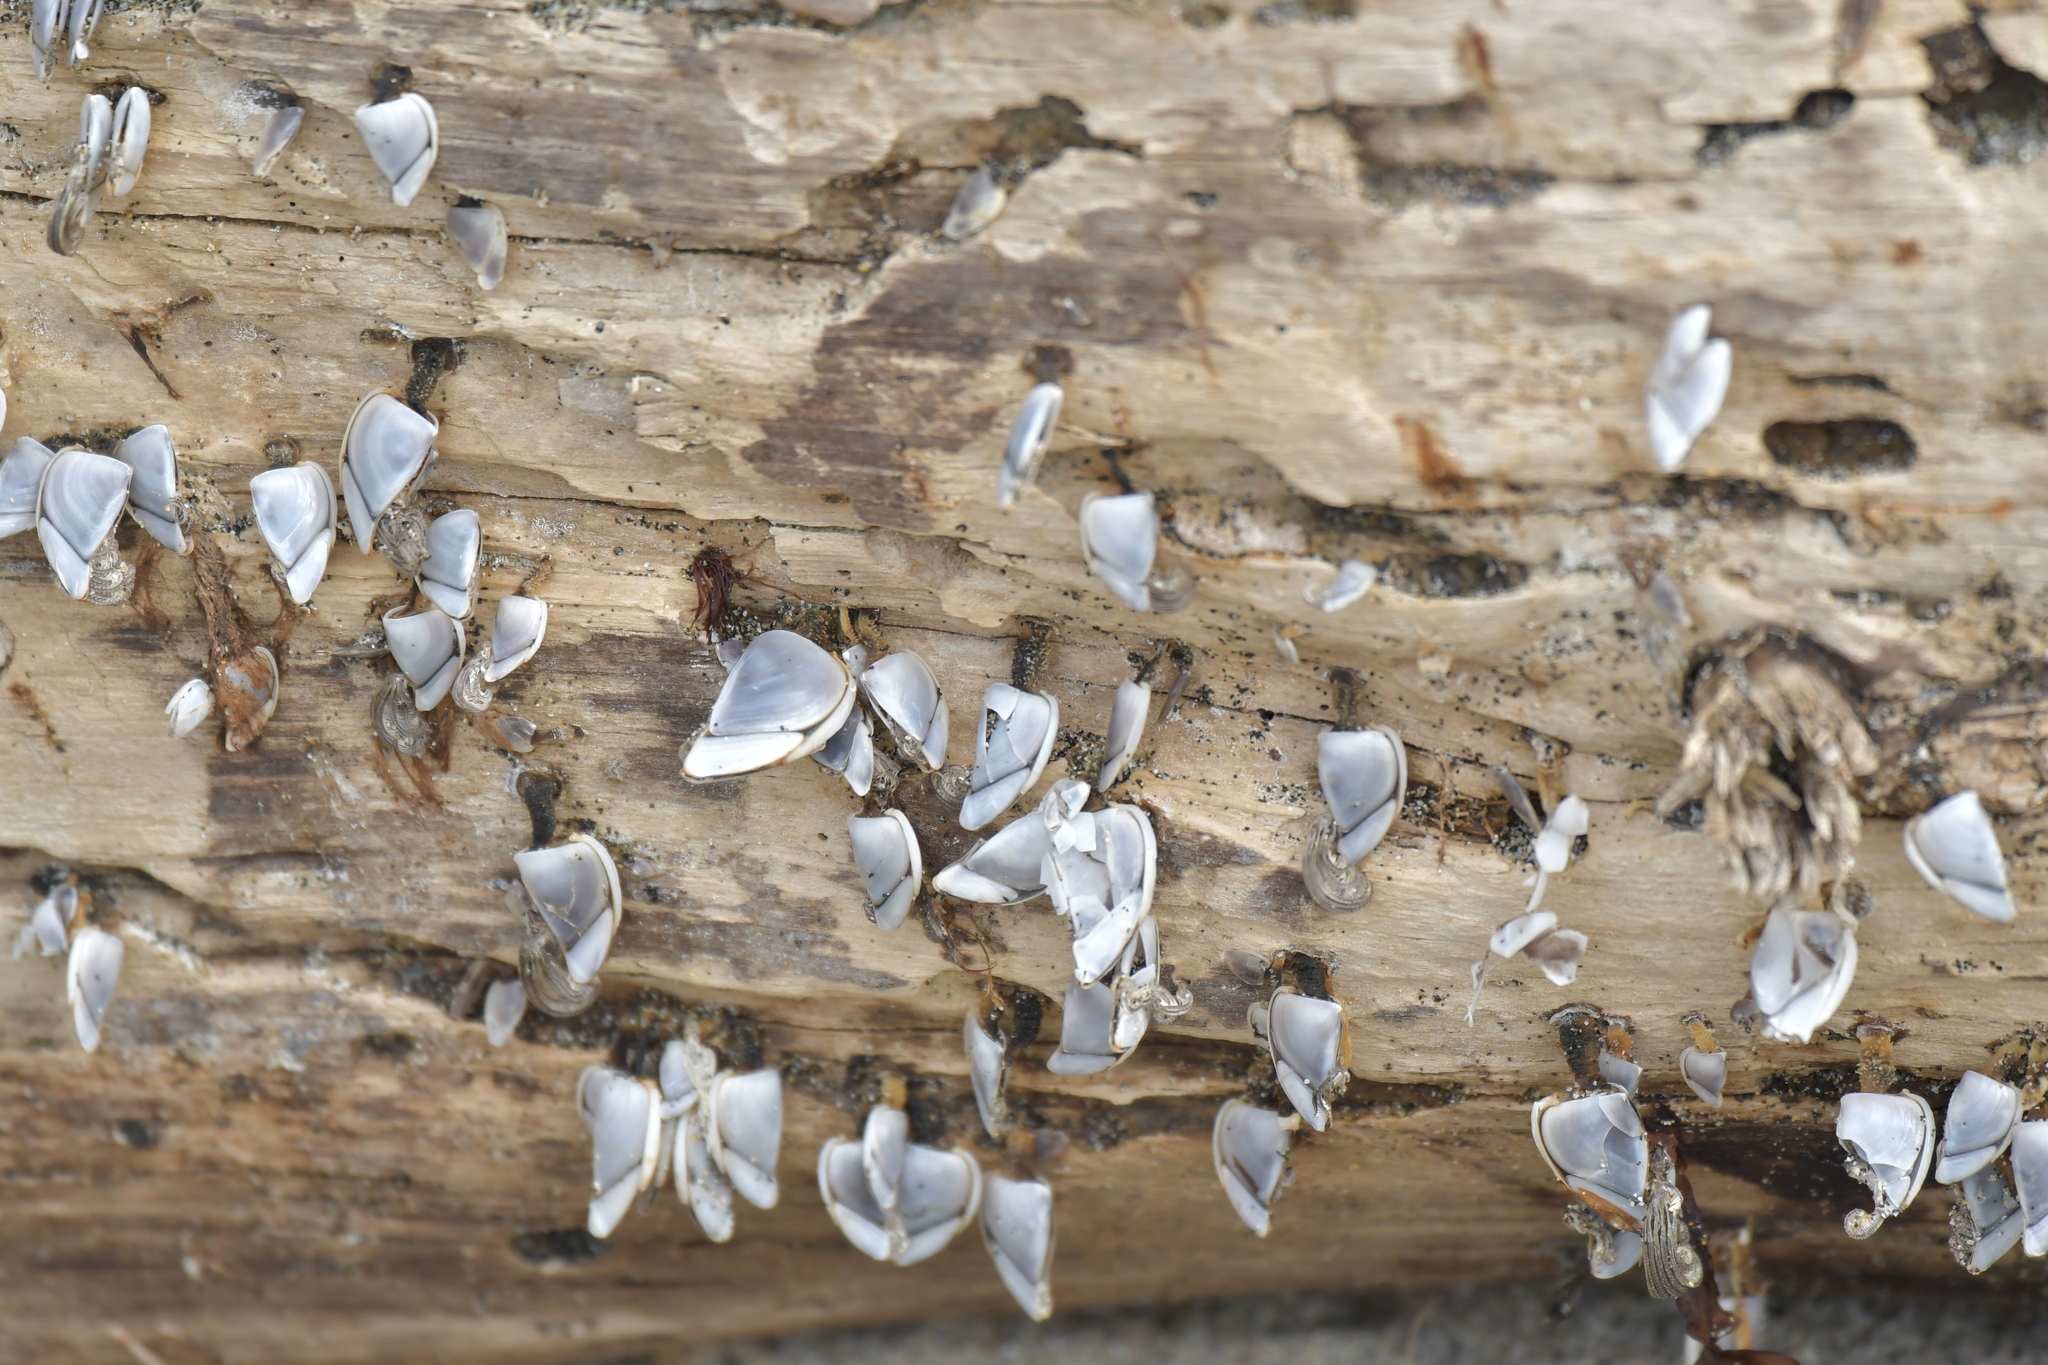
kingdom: Animalia
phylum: Arthropoda
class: Maxillopoda
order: Pedunculata
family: Lepadidae
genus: Lepas
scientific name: Lepas testudinata
